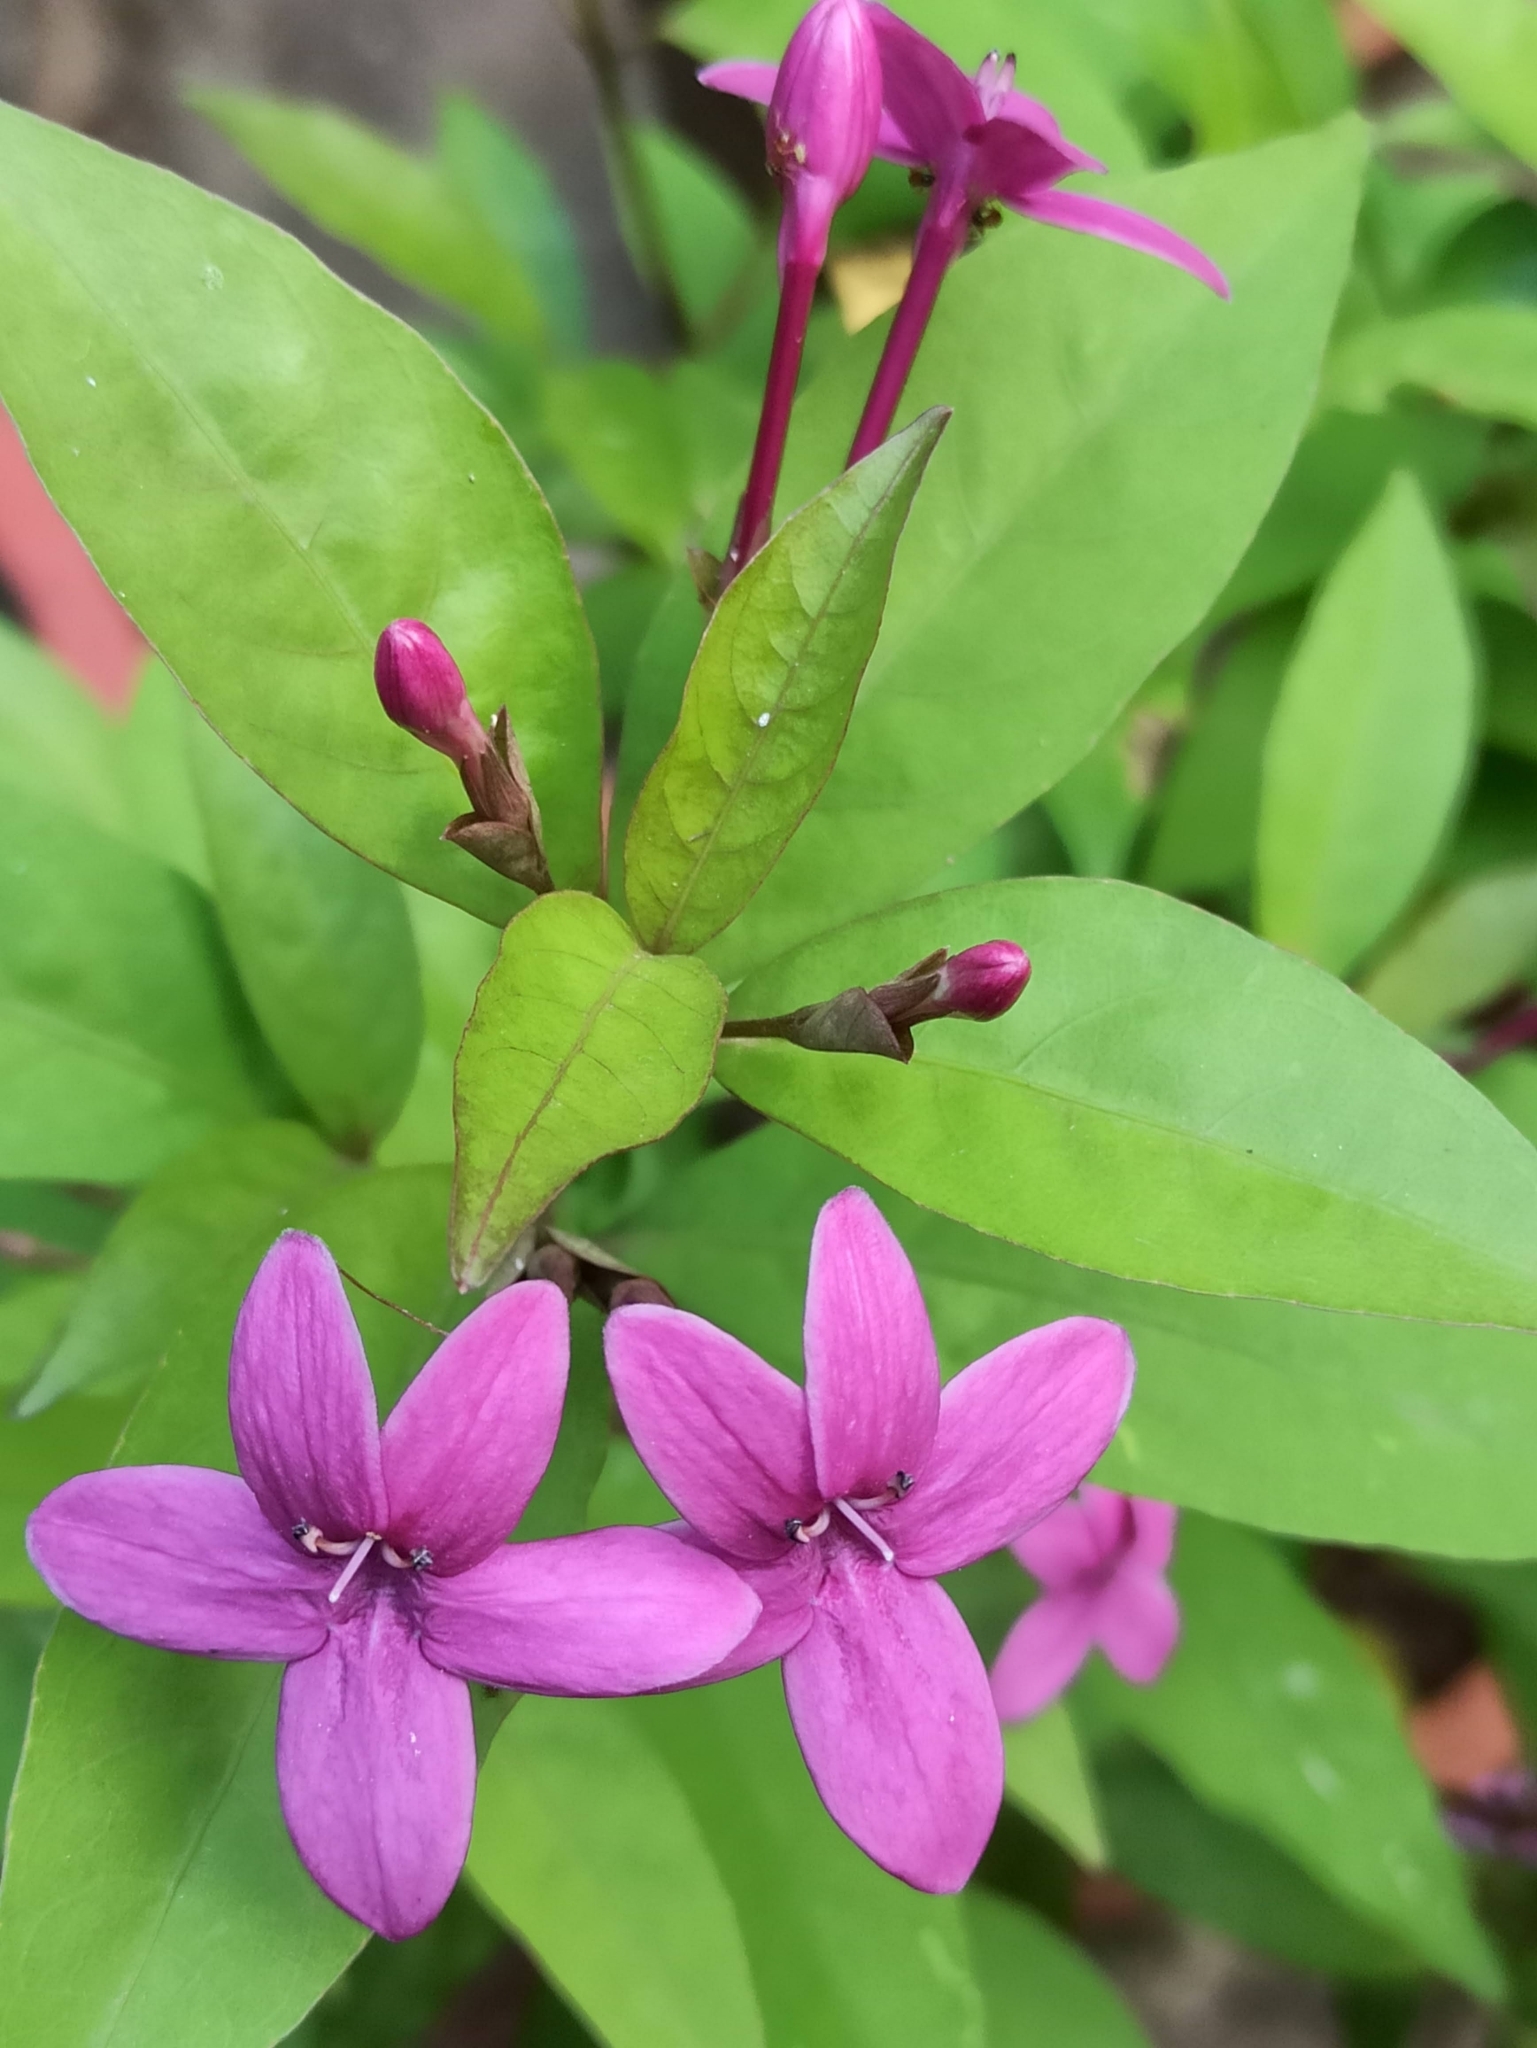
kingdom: Plantae
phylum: Tracheophyta
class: Magnoliopsida
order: Lamiales
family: Acanthaceae
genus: Pseuderanthemum
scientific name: Pseuderanthemum laxiflorum
